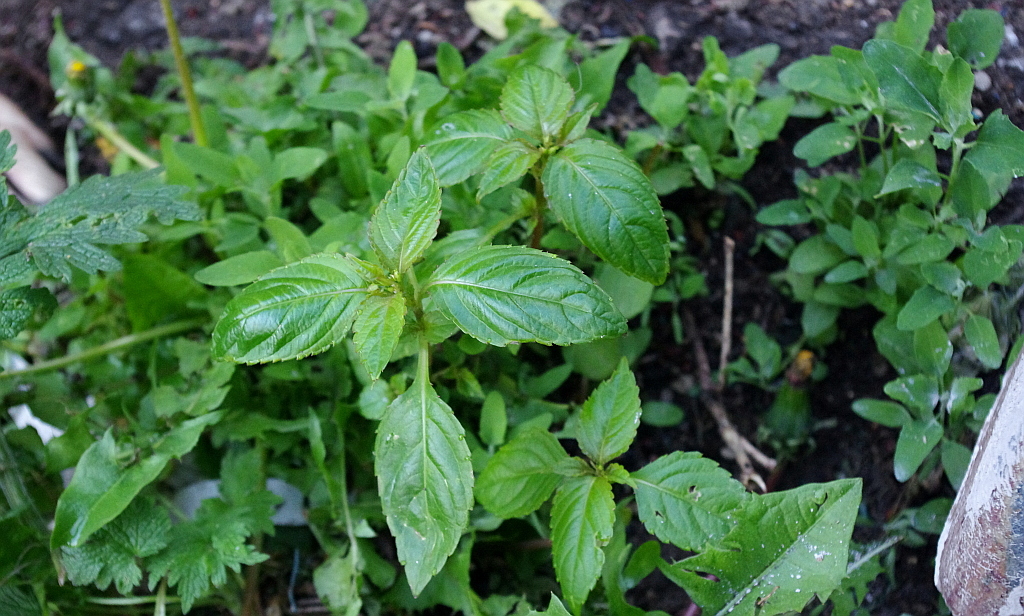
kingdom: Plantae
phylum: Tracheophyta
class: Magnoliopsida
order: Ericales
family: Balsaminaceae
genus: Impatiens
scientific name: Impatiens parviflora
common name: Small balsam
